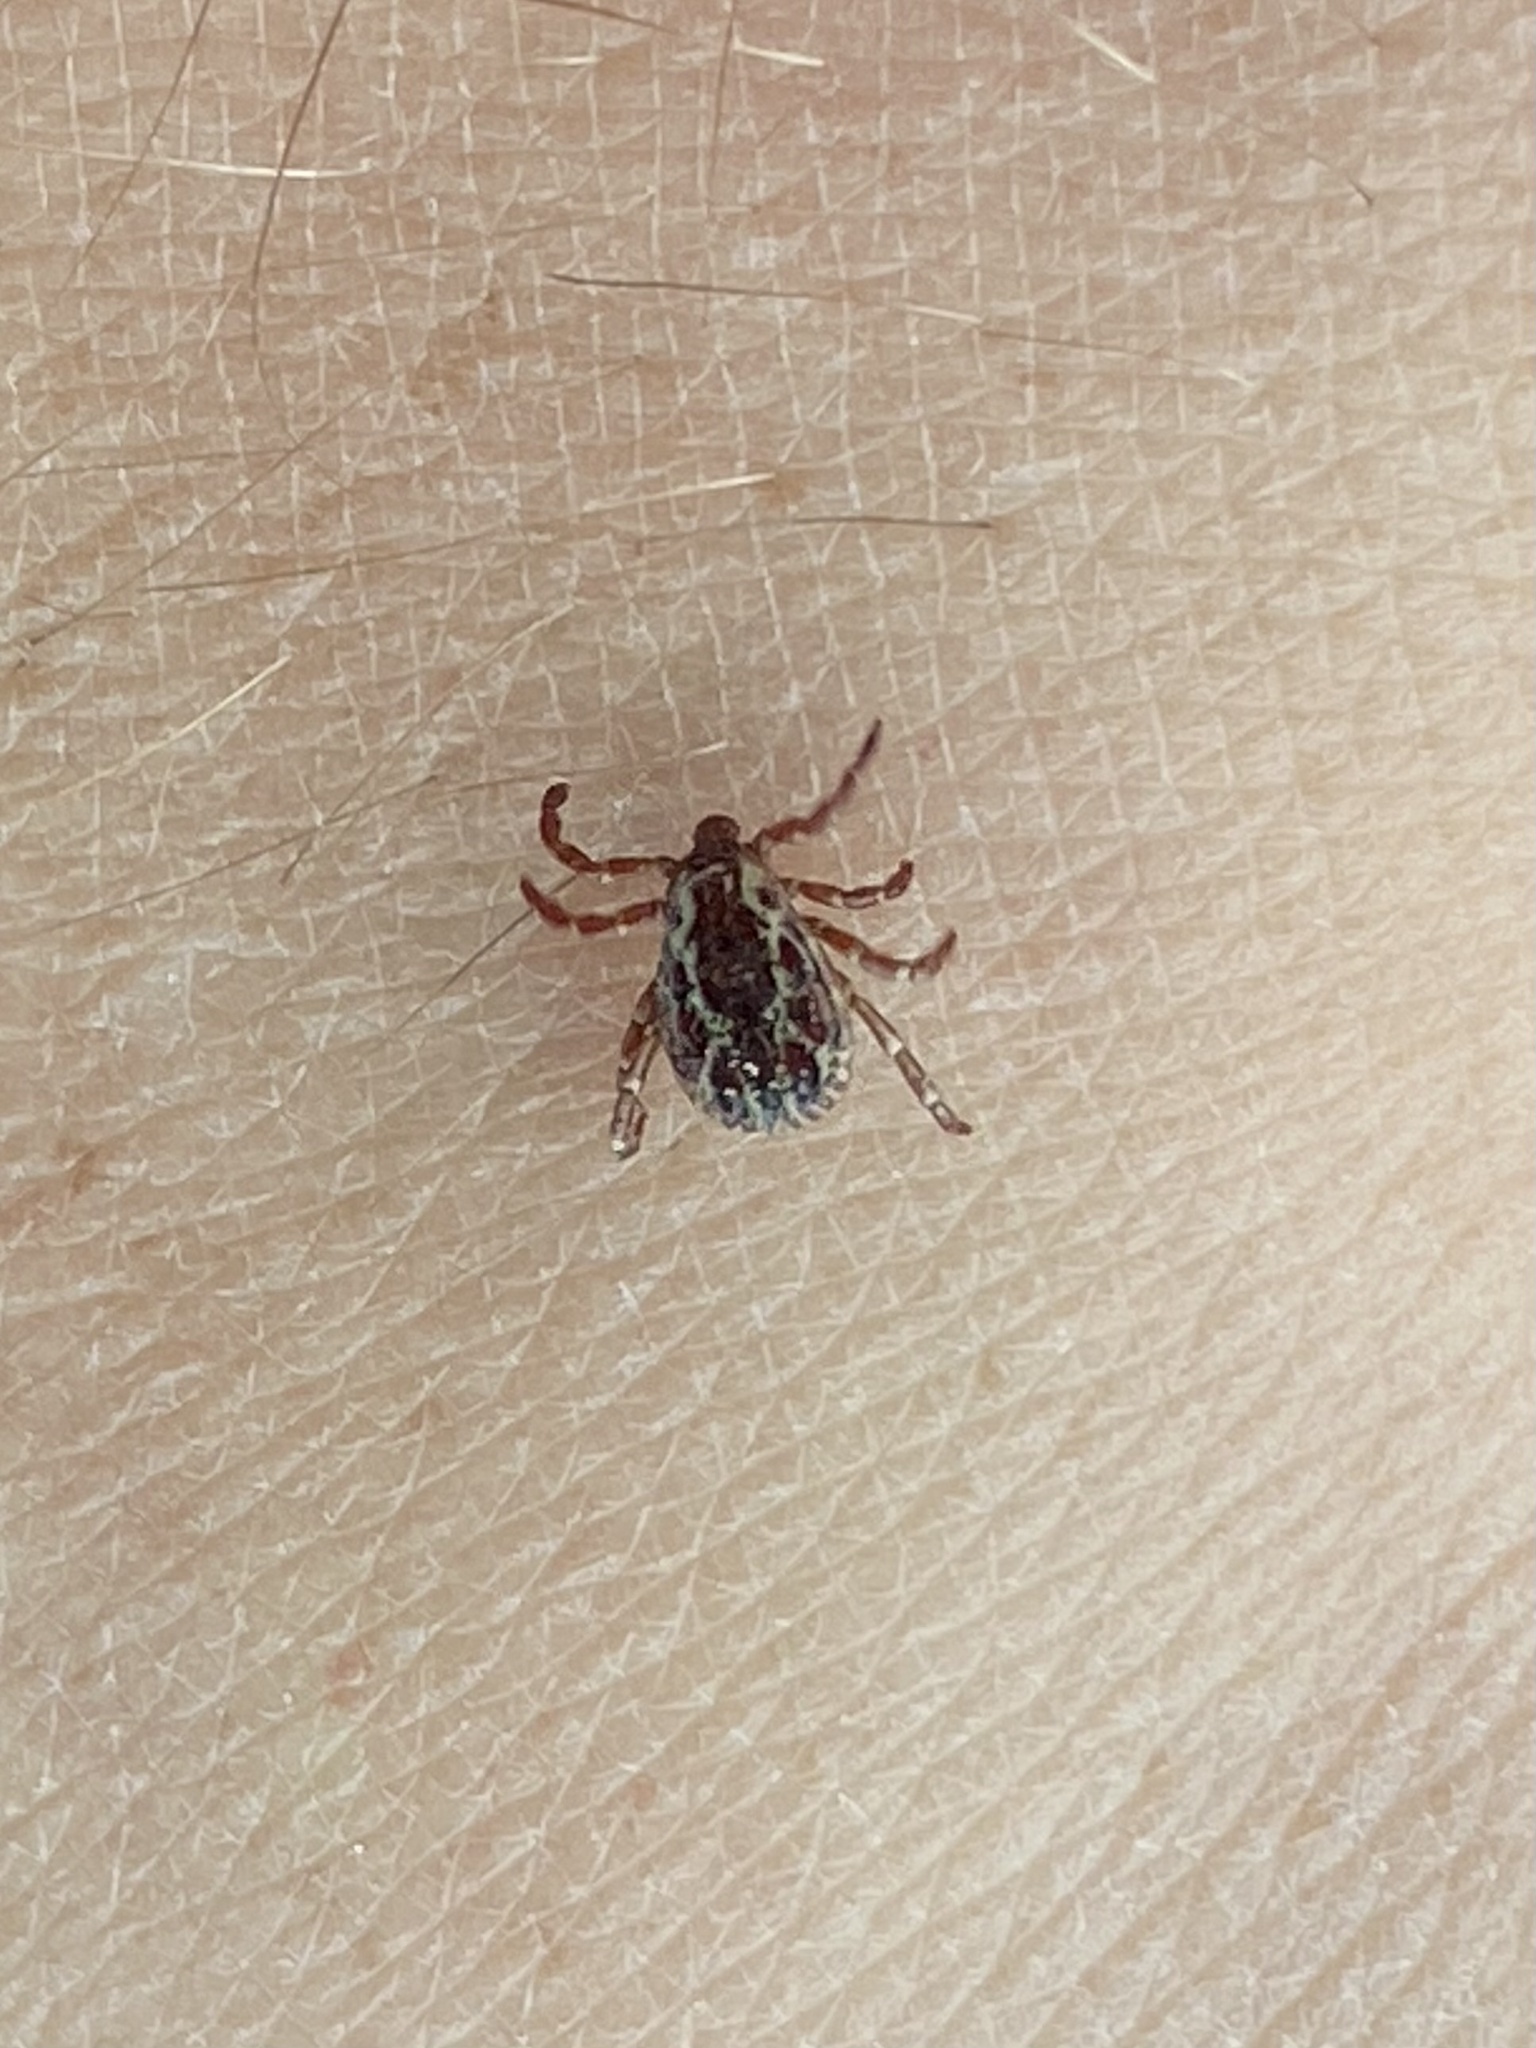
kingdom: Animalia
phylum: Arthropoda
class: Arachnida
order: Ixodida
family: Ixodidae
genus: Dermacentor
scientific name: Dermacentor variabilis
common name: American dog tick
